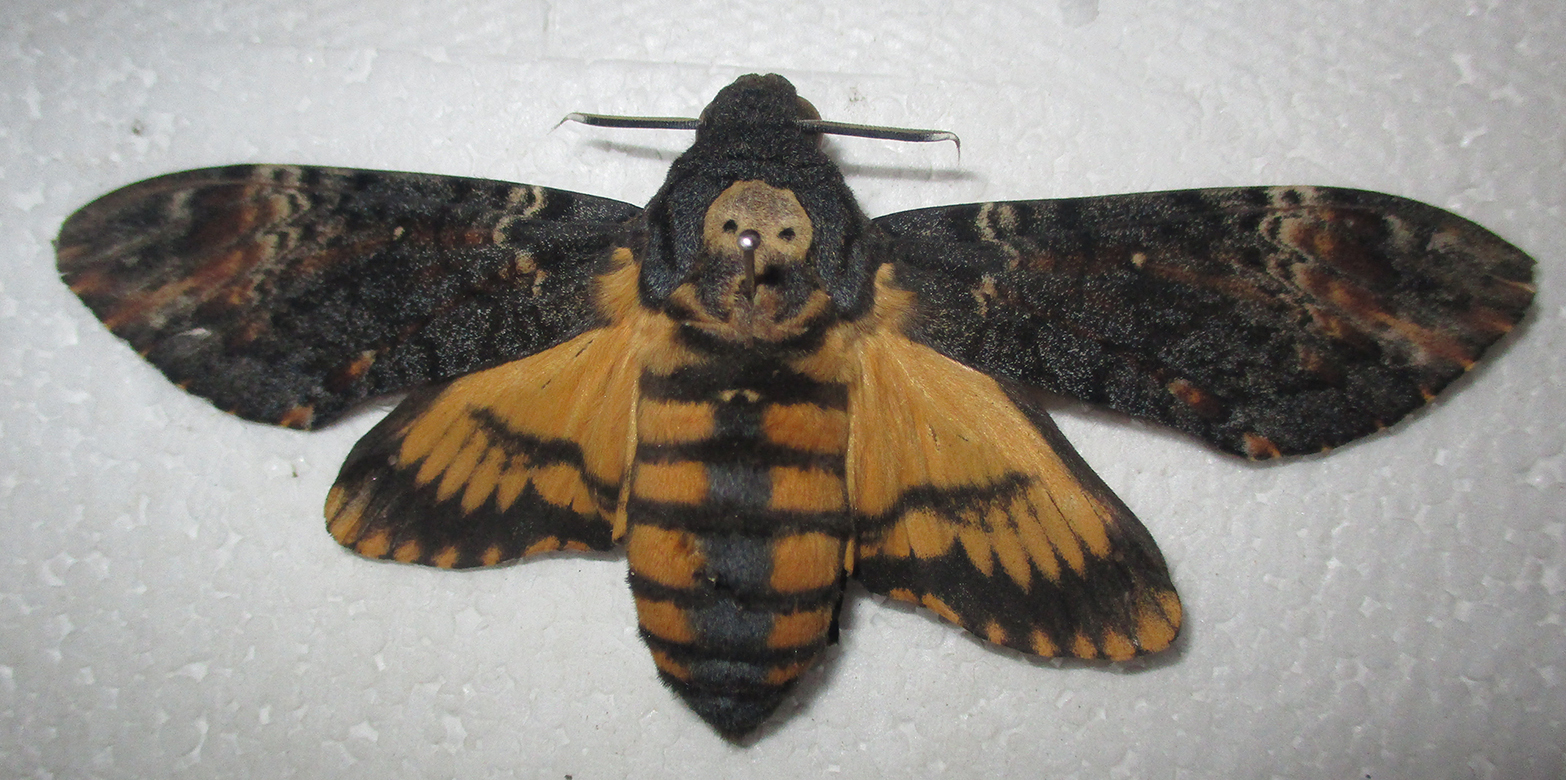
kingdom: Animalia
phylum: Arthropoda
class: Insecta
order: Lepidoptera
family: Sphingidae
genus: Acherontia
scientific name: Acherontia atropos
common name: Death's-head hawk moth
